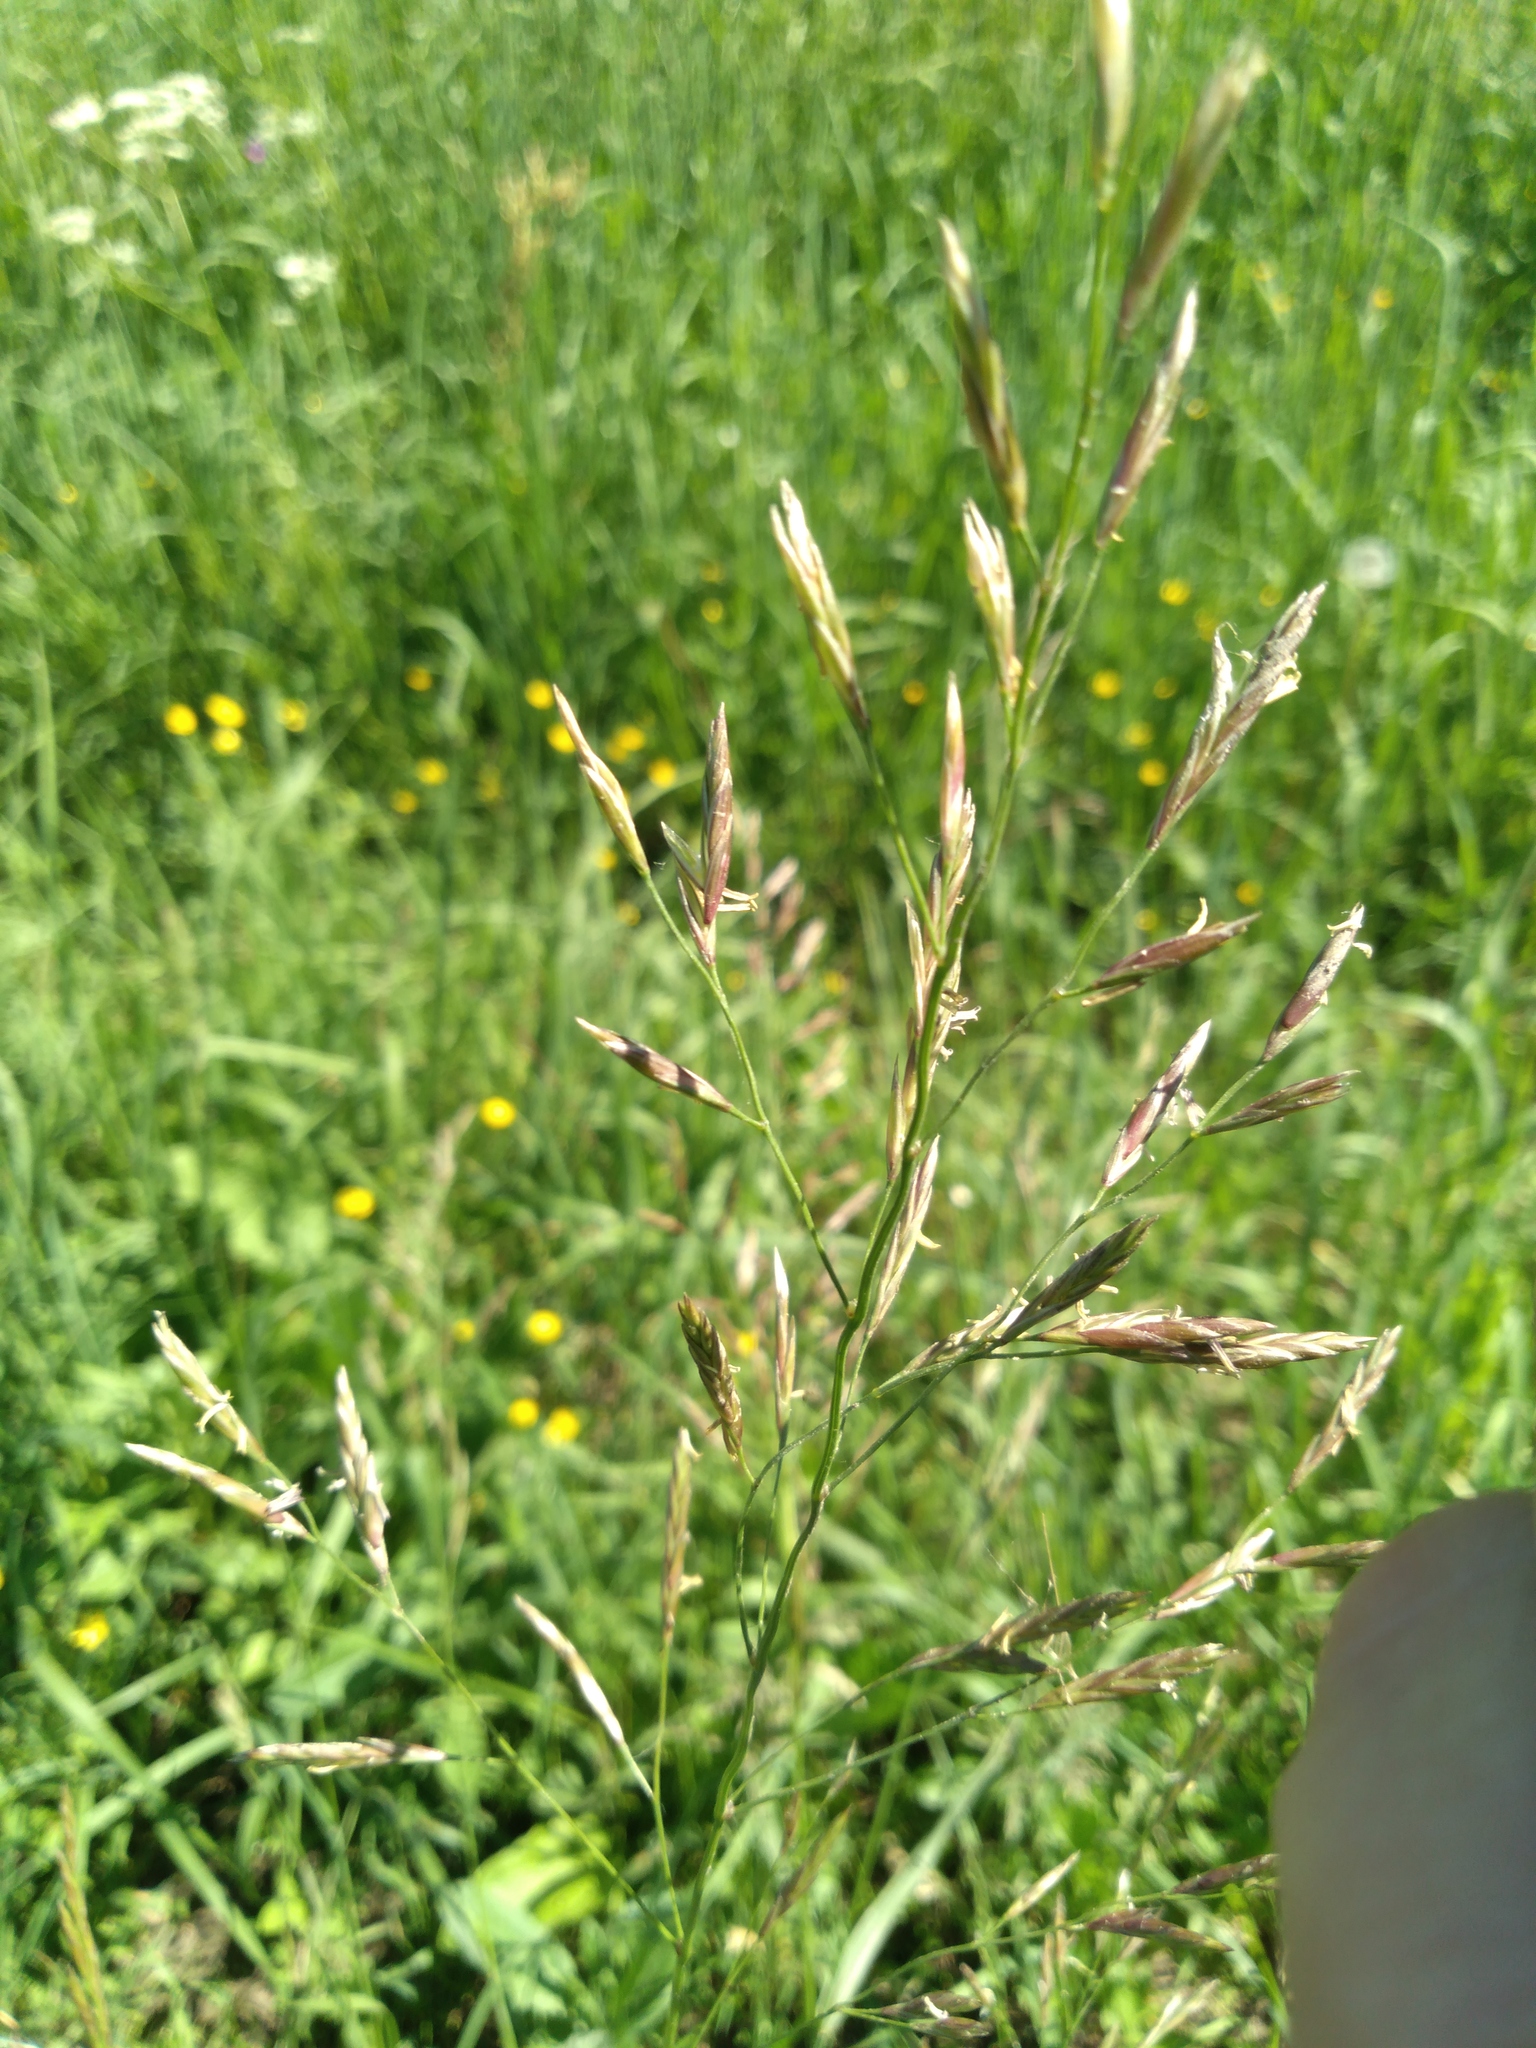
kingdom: Plantae
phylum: Tracheophyta
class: Liliopsida
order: Poales
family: Poaceae
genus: Lolium
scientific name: Lolium pratense
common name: Dover grass
